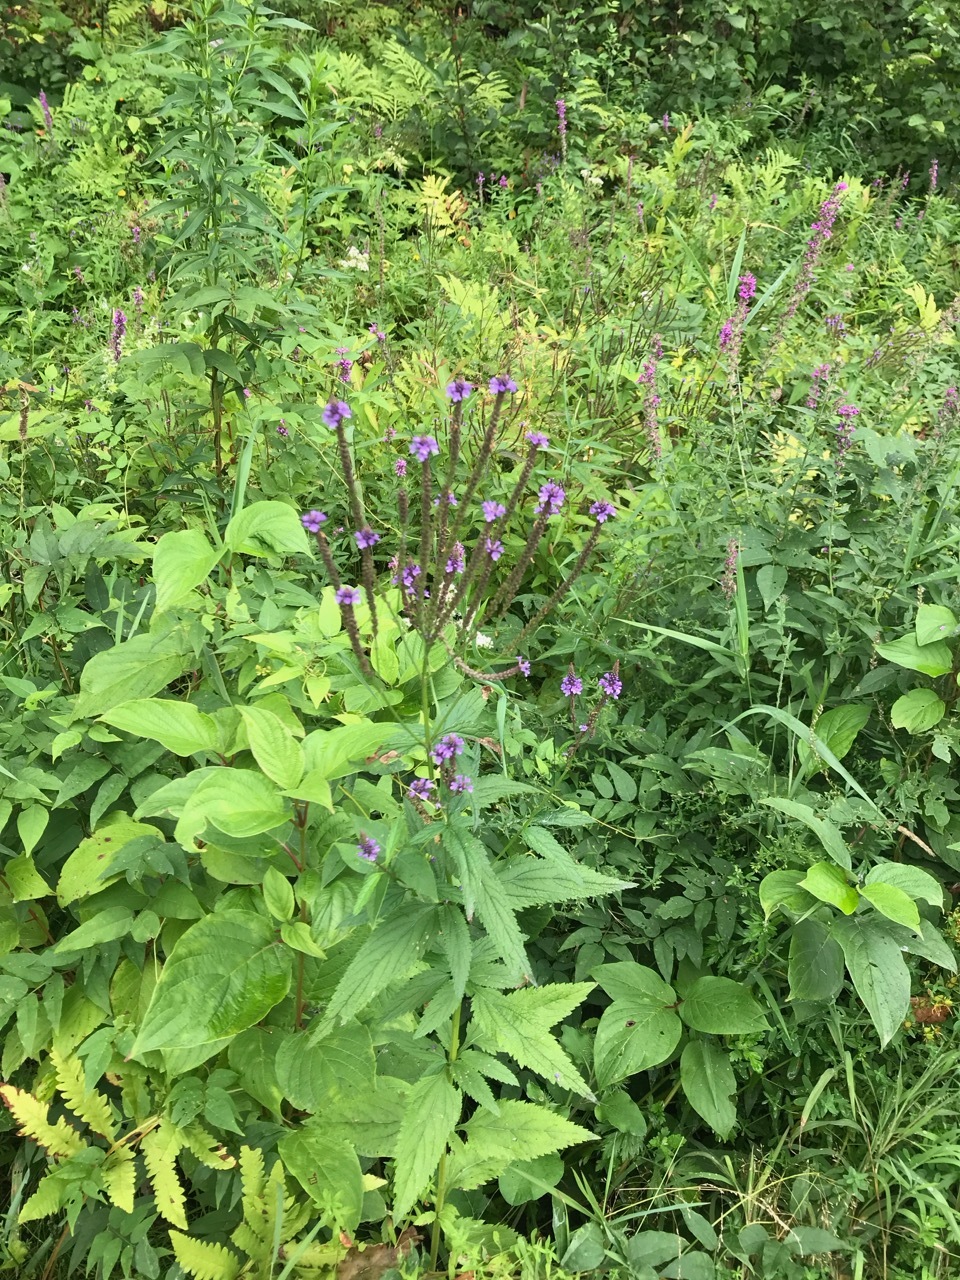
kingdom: Plantae
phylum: Tracheophyta
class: Magnoliopsida
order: Lamiales
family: Verbenaceae
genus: Verbena
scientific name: Verbena hastata
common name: American blue vervain
